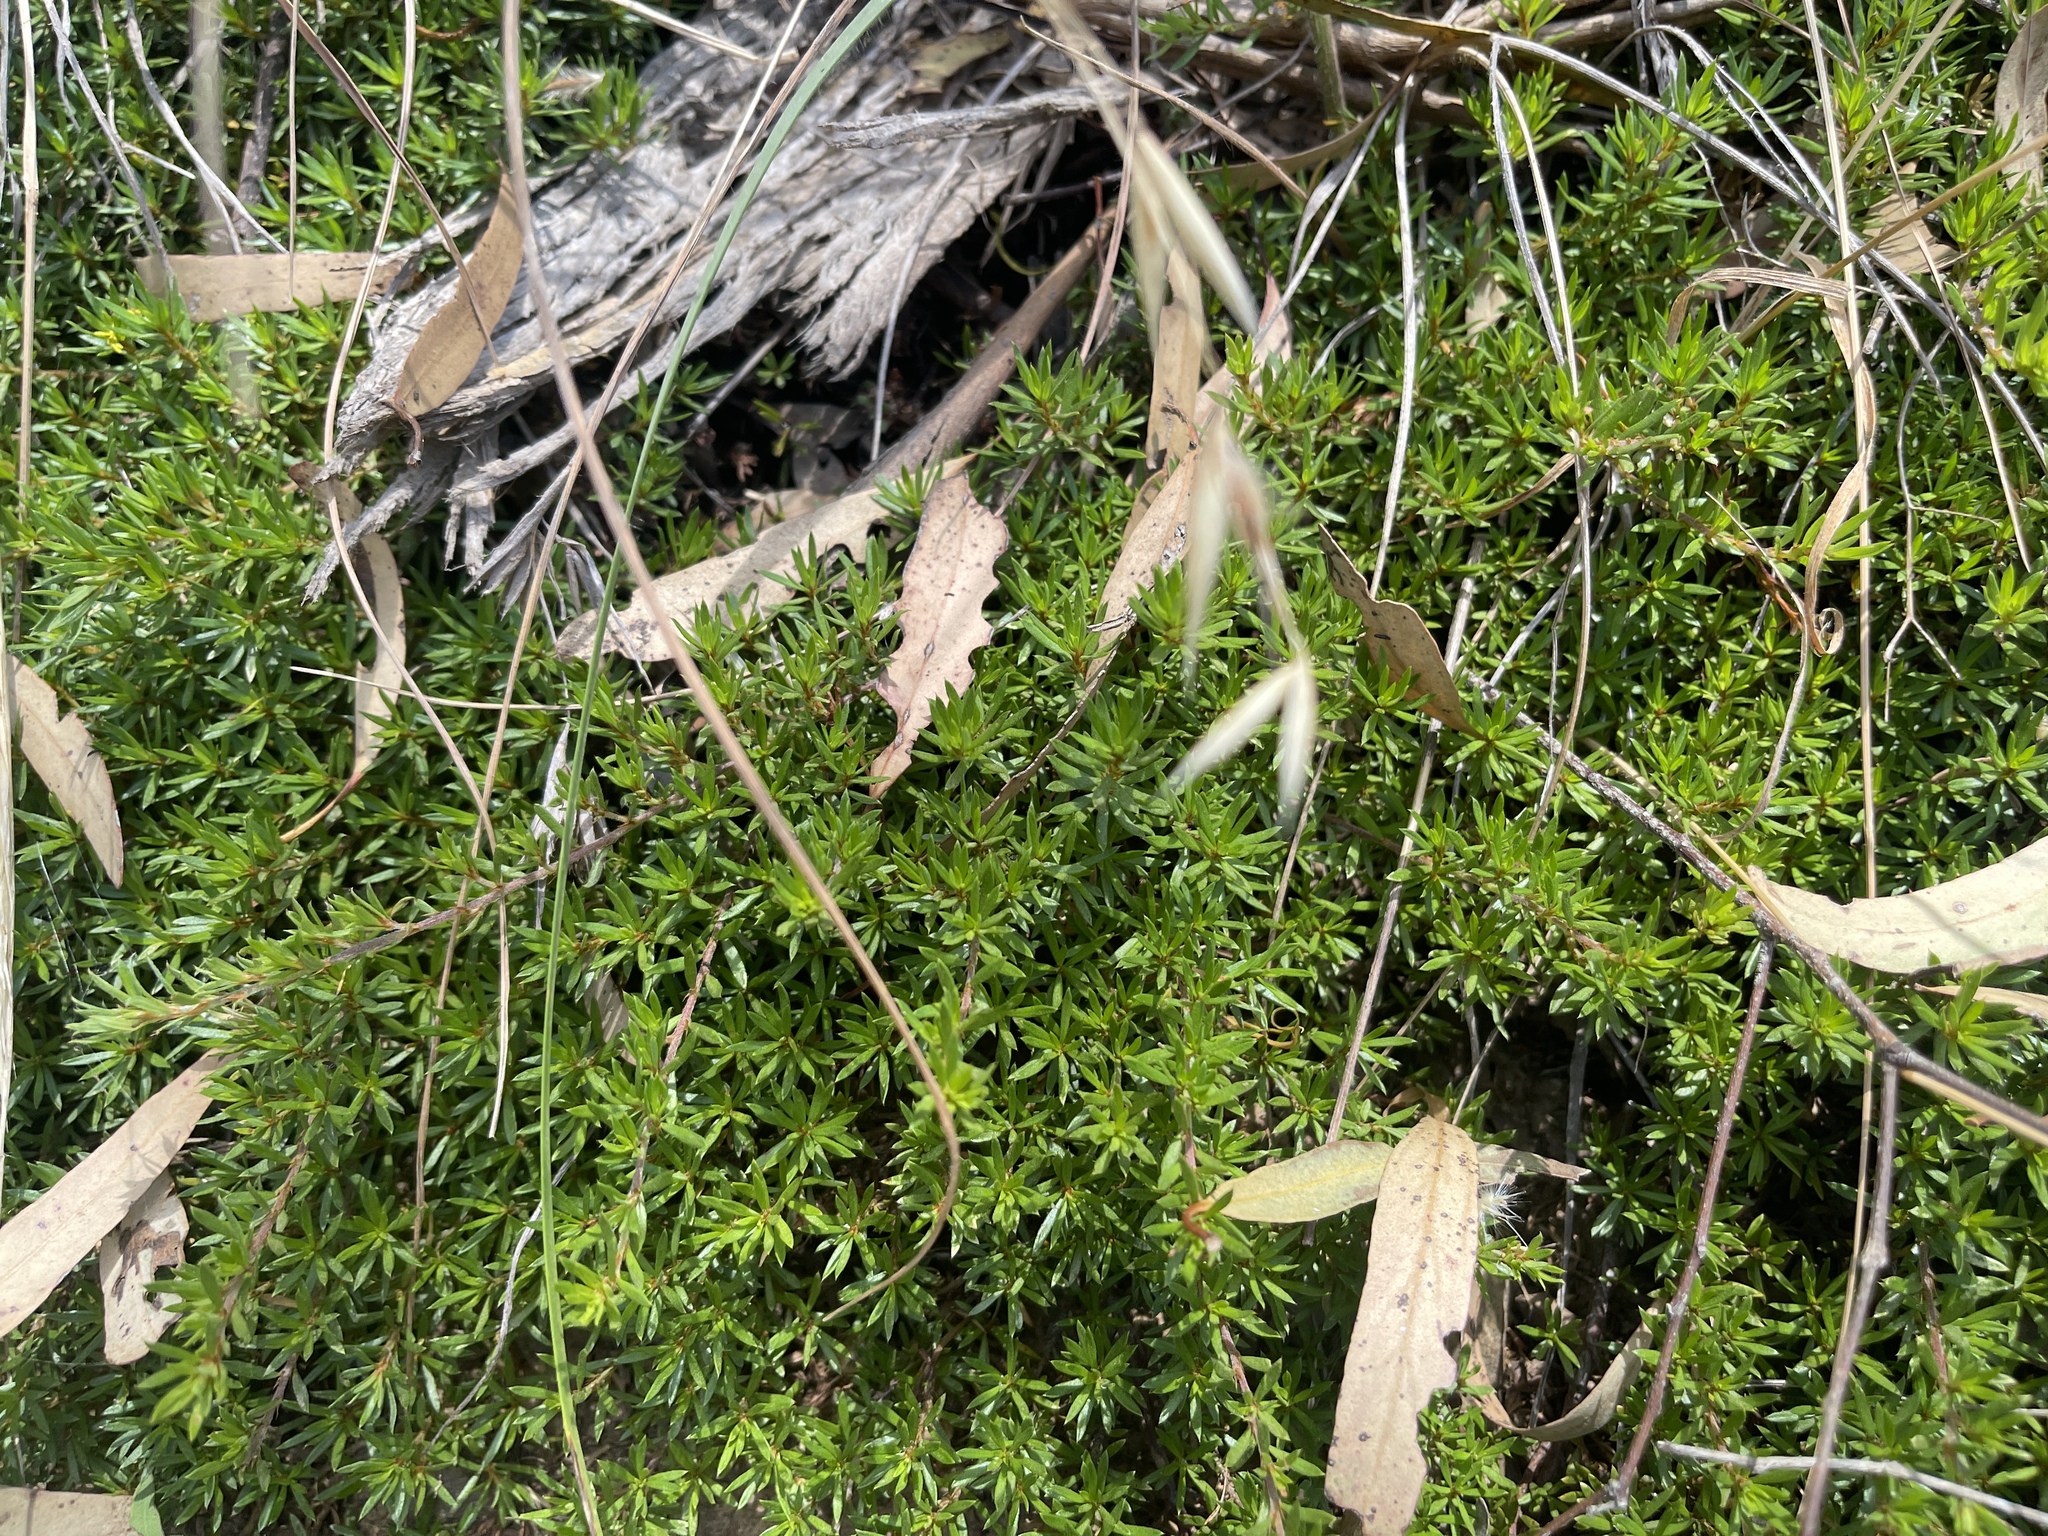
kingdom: Plantae
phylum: Tracheophyta
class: Magnoliopsida
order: Fabales
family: Fabaceae
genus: Pultenaea
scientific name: Pultenaea pedunculata
